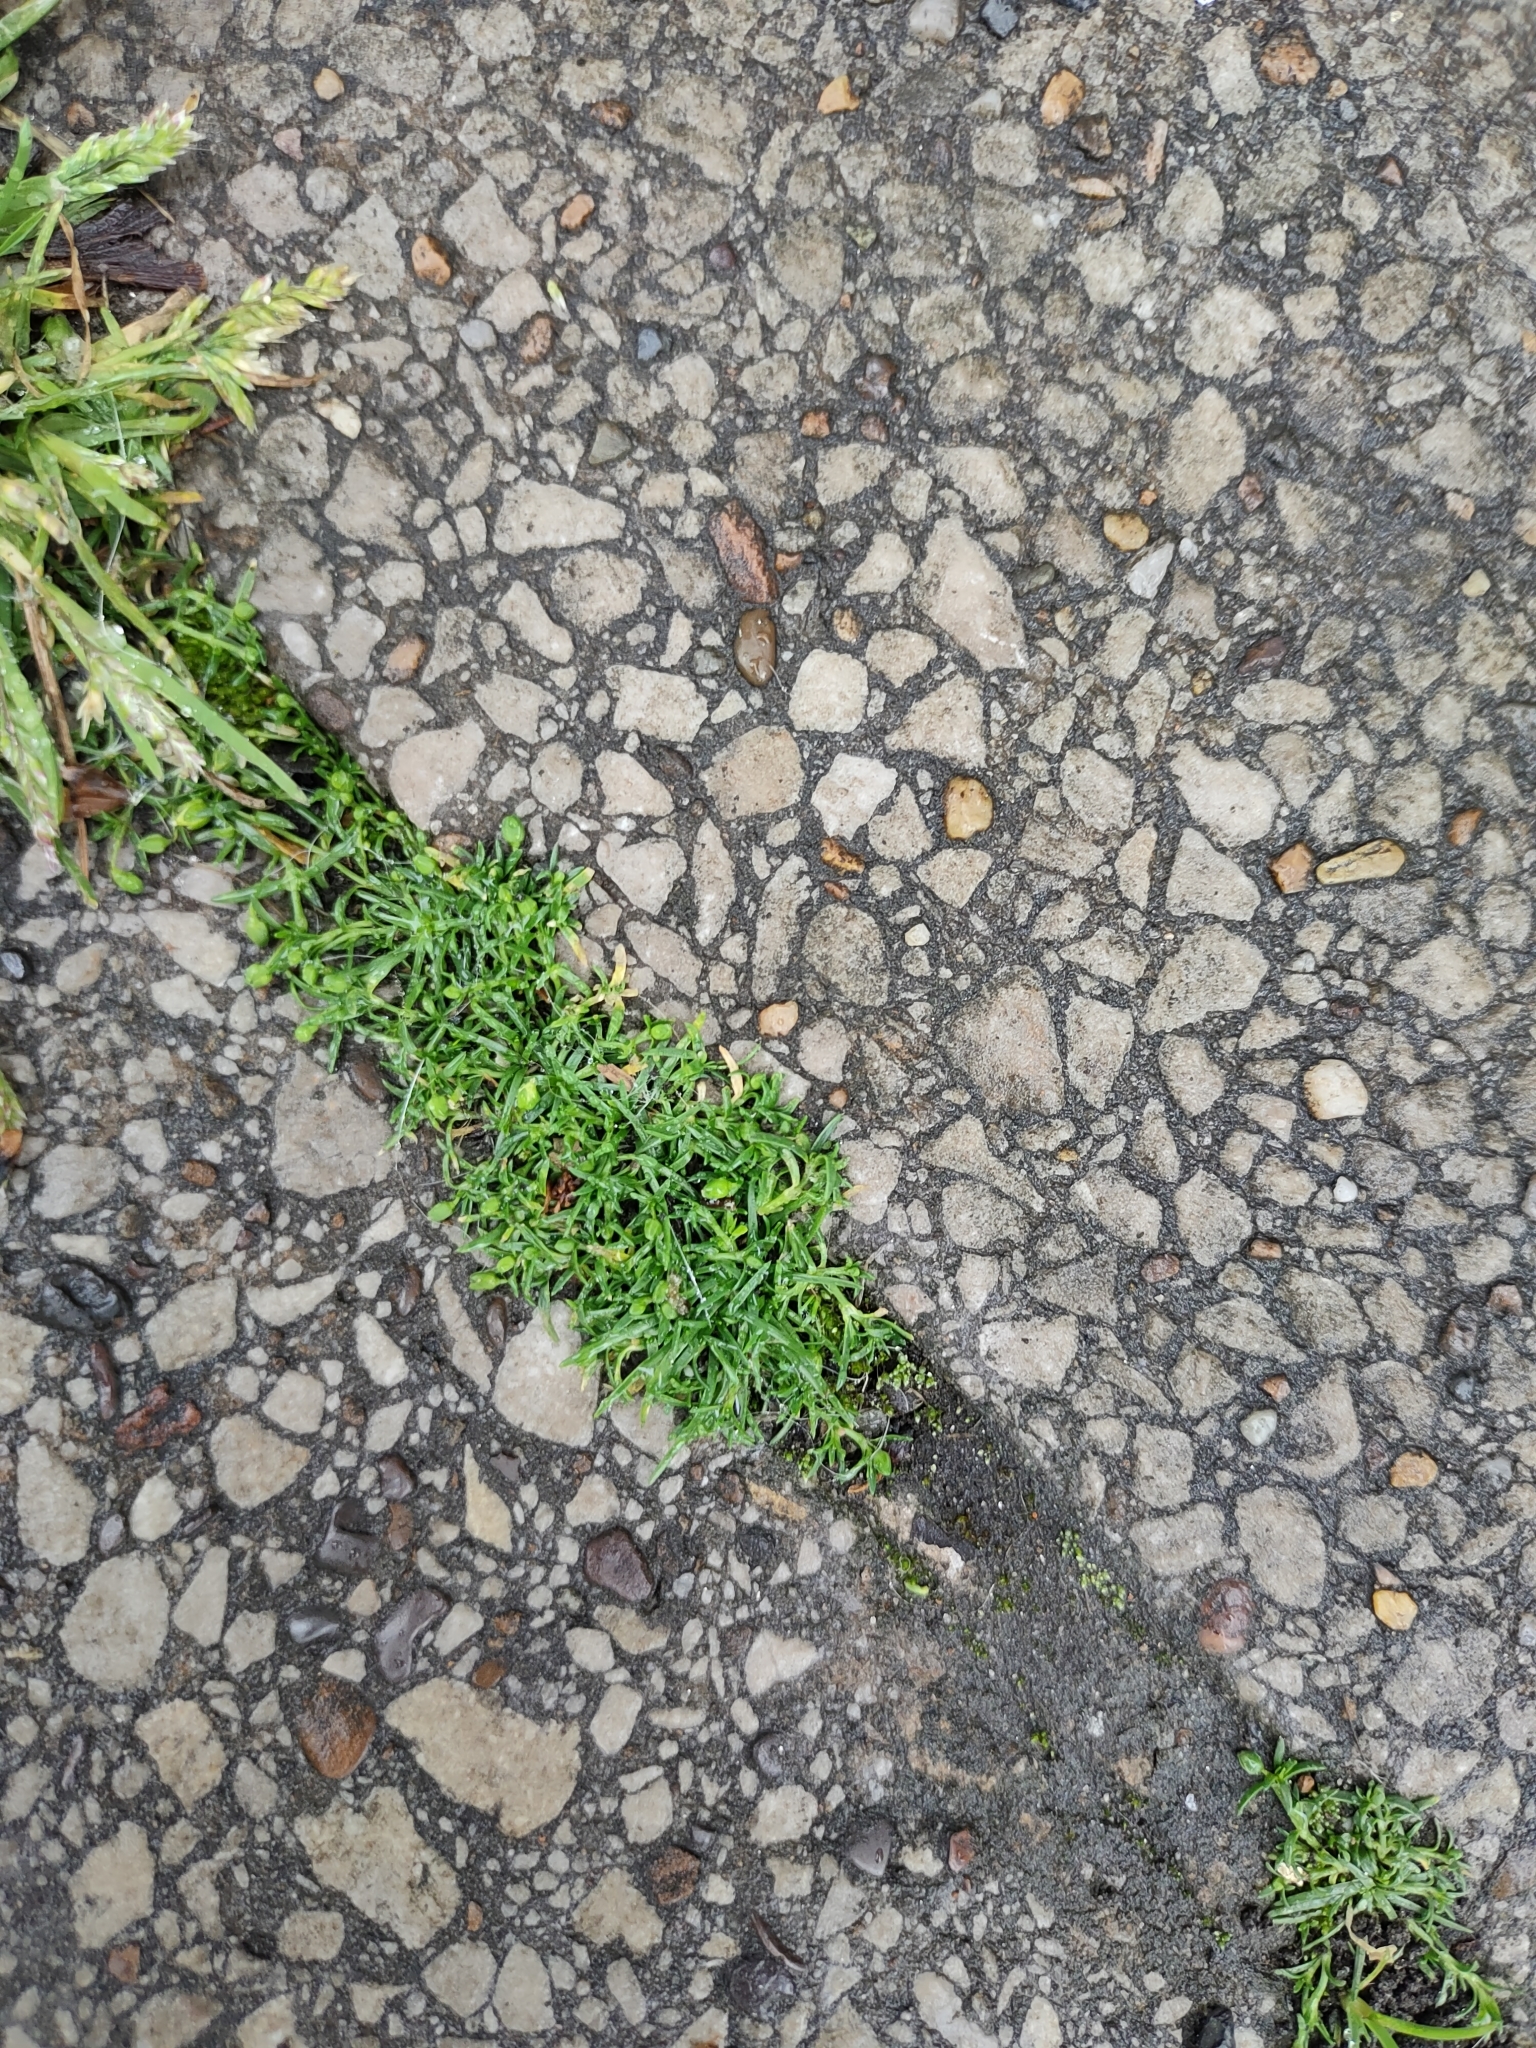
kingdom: Plantae
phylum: Tracheophyta
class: Magnoliopsida
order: Caryophyllales
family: Caryophyllaceae
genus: Sagina
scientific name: Sagina procumbens
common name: Procumbent pearlwort
